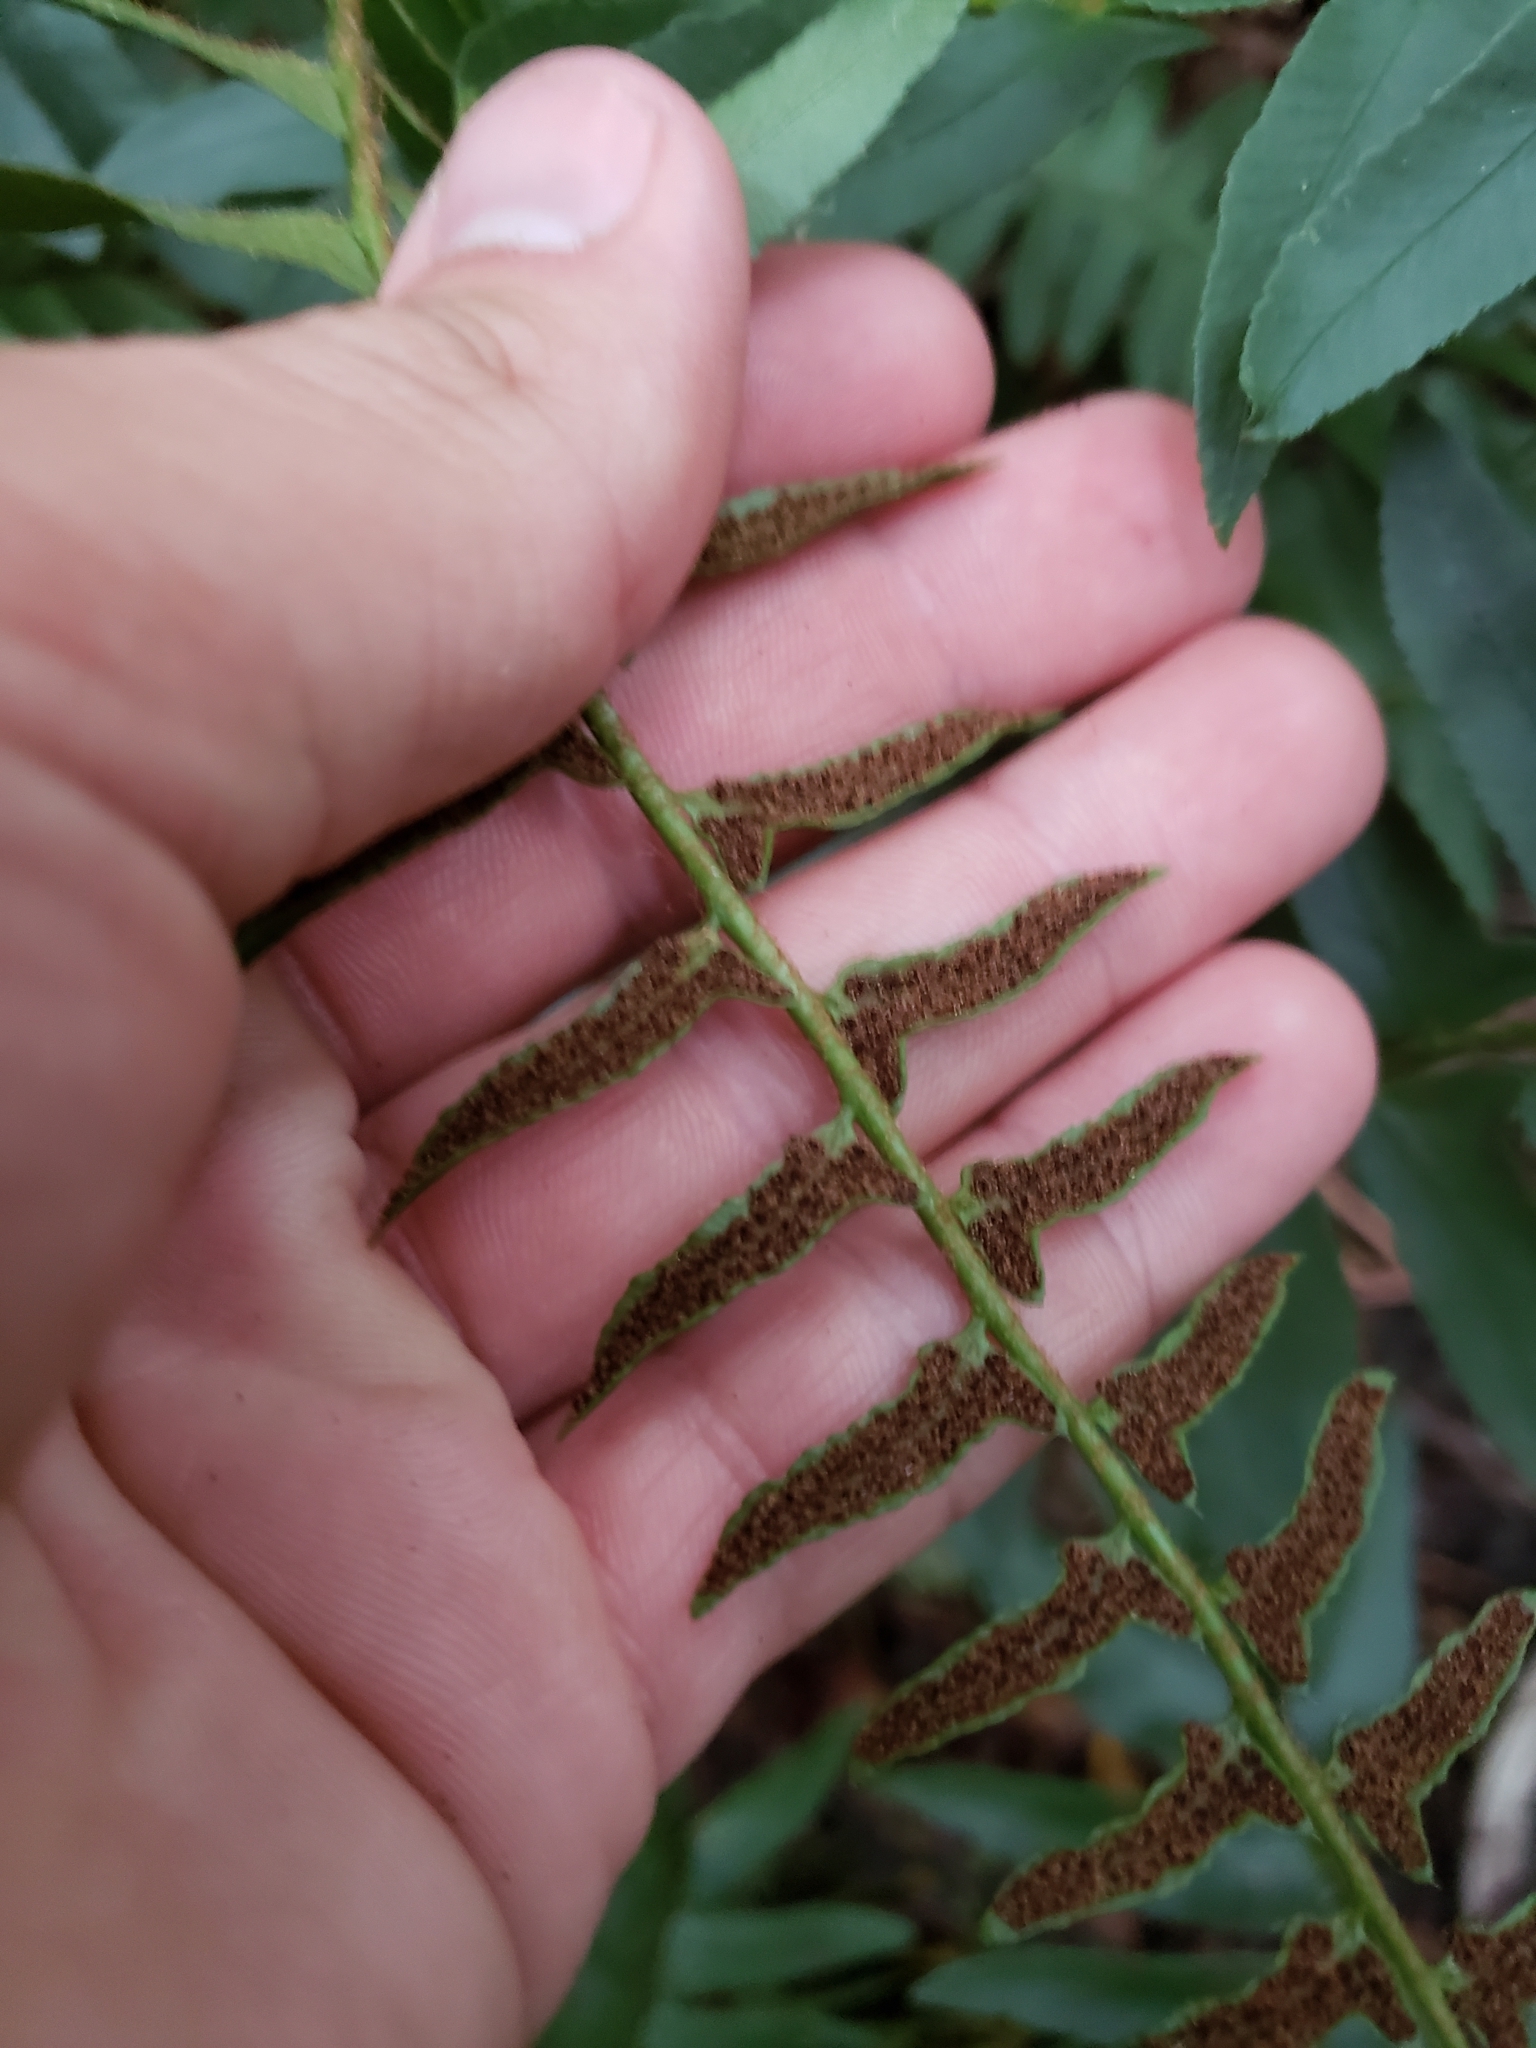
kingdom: Plantae
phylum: Tracheophyta
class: Polypodiopsida
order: Polypodiales
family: Dryopteridaceae
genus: Polystichum
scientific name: Polystichum acrostichoides
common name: Christmas fern
